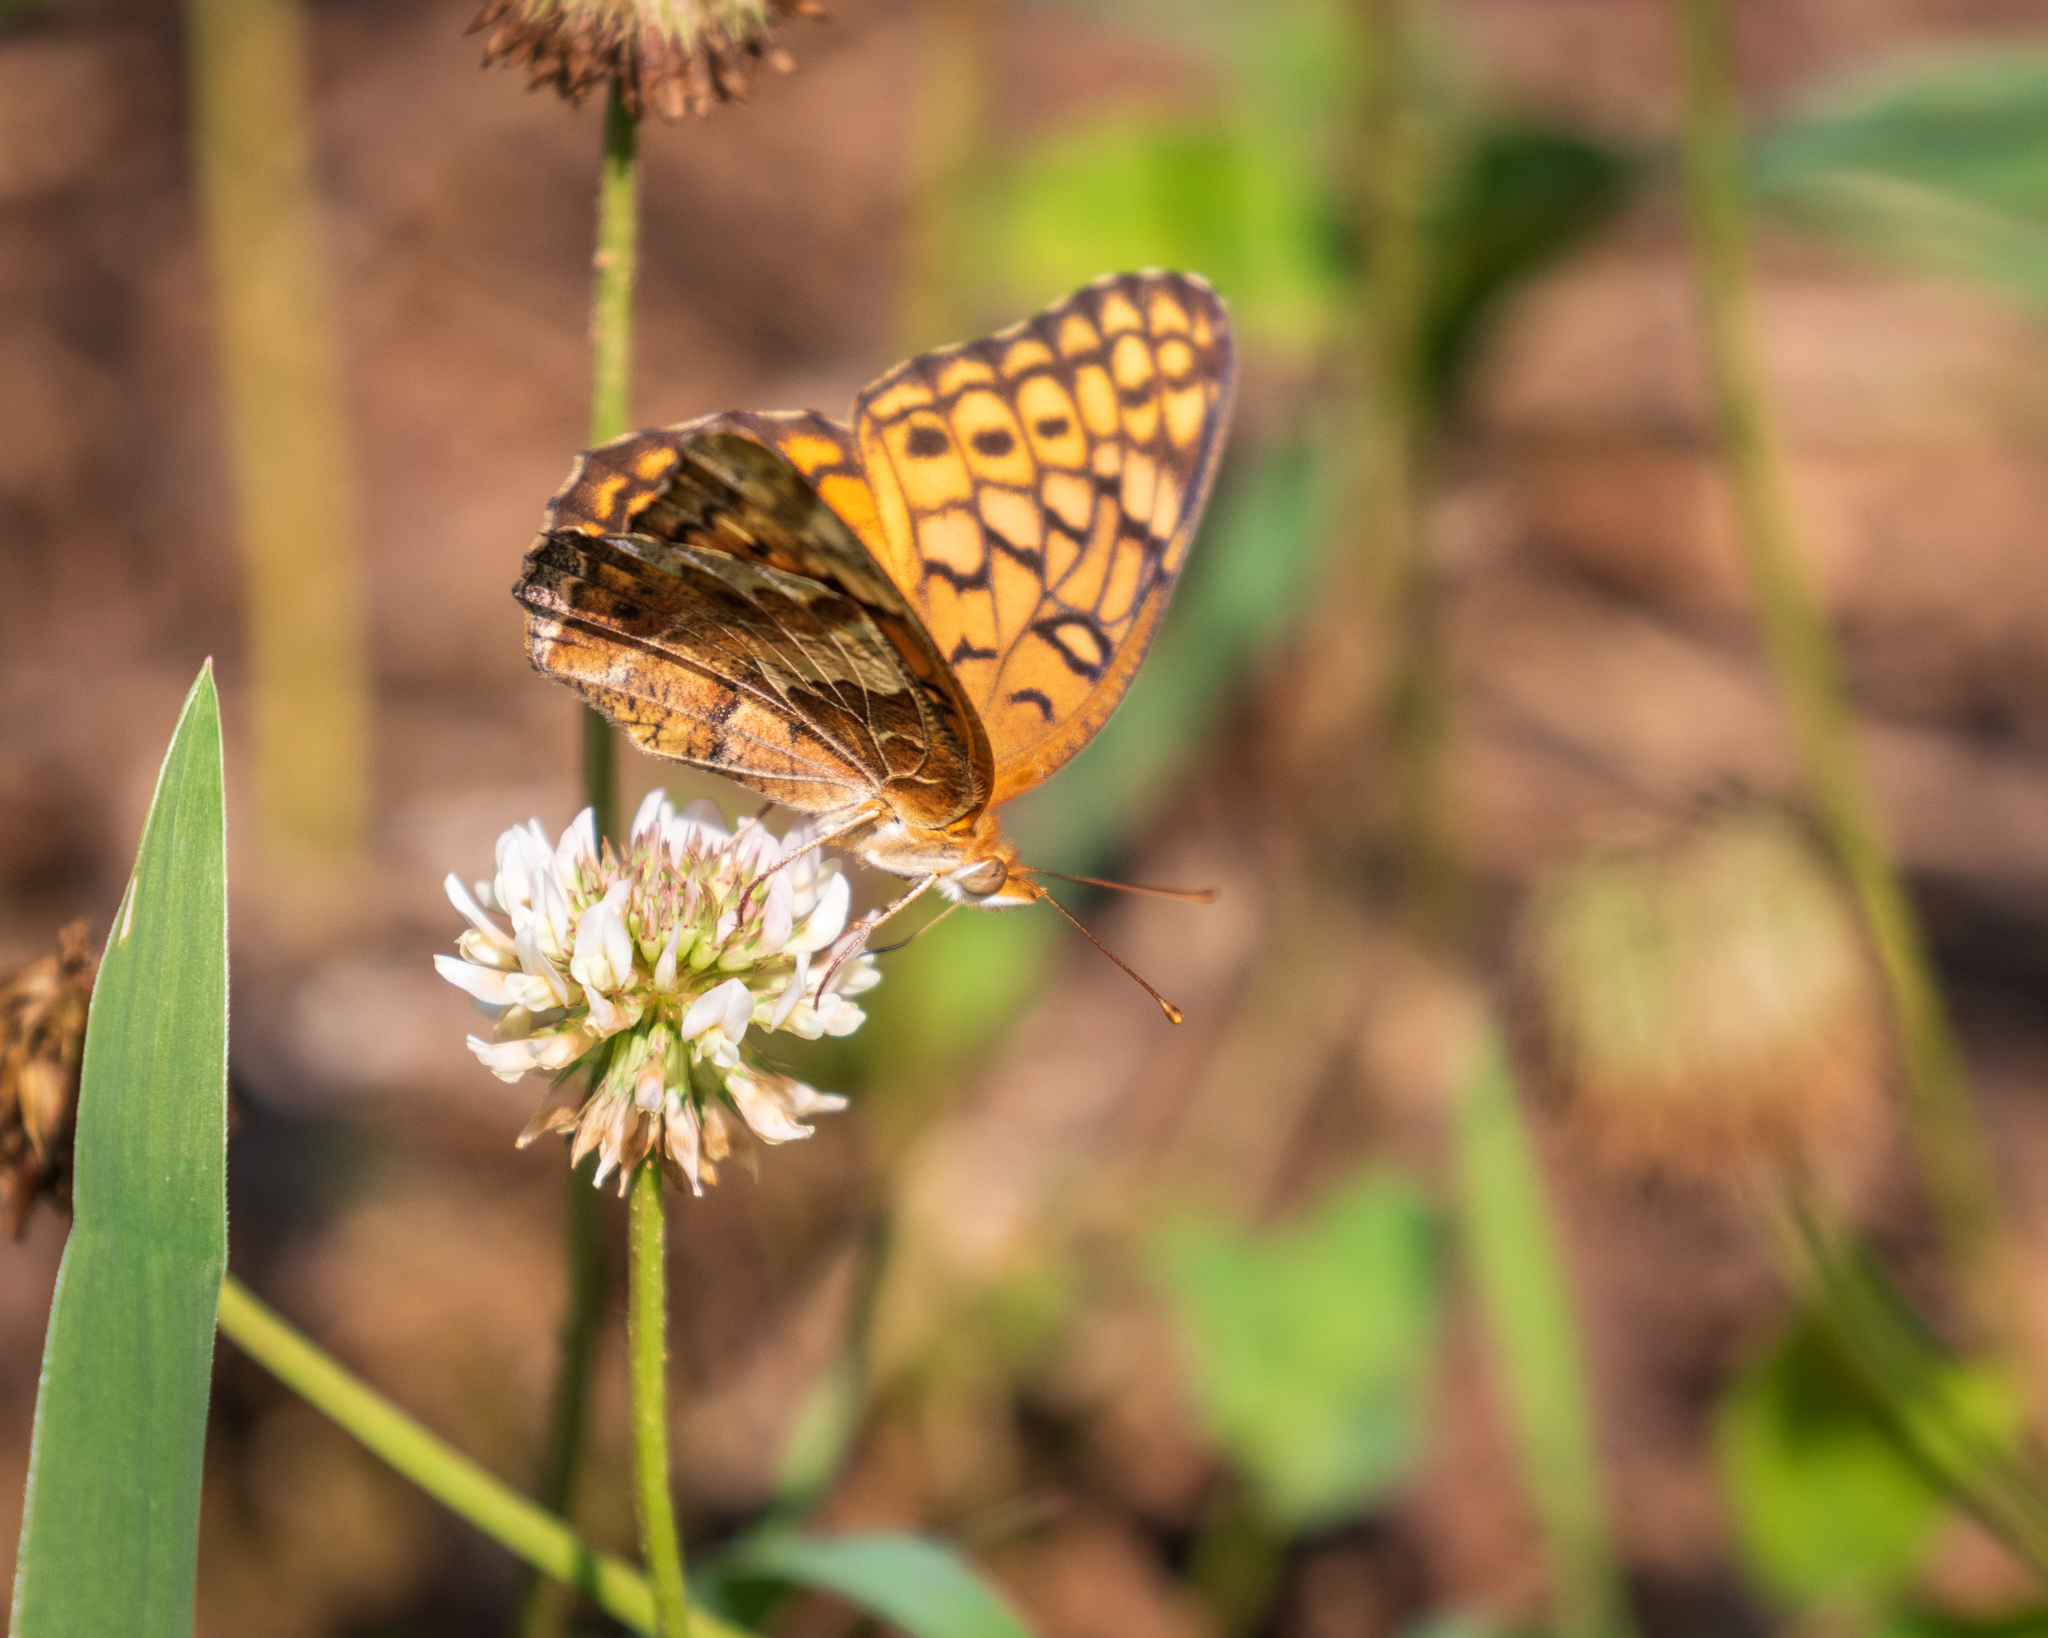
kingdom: Animalia
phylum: Arthropoda
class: Insecta
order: Lepidoptera
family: Nymphalidae
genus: Euptoieta
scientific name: Euptoieta claudia
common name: Variegated fritillary
